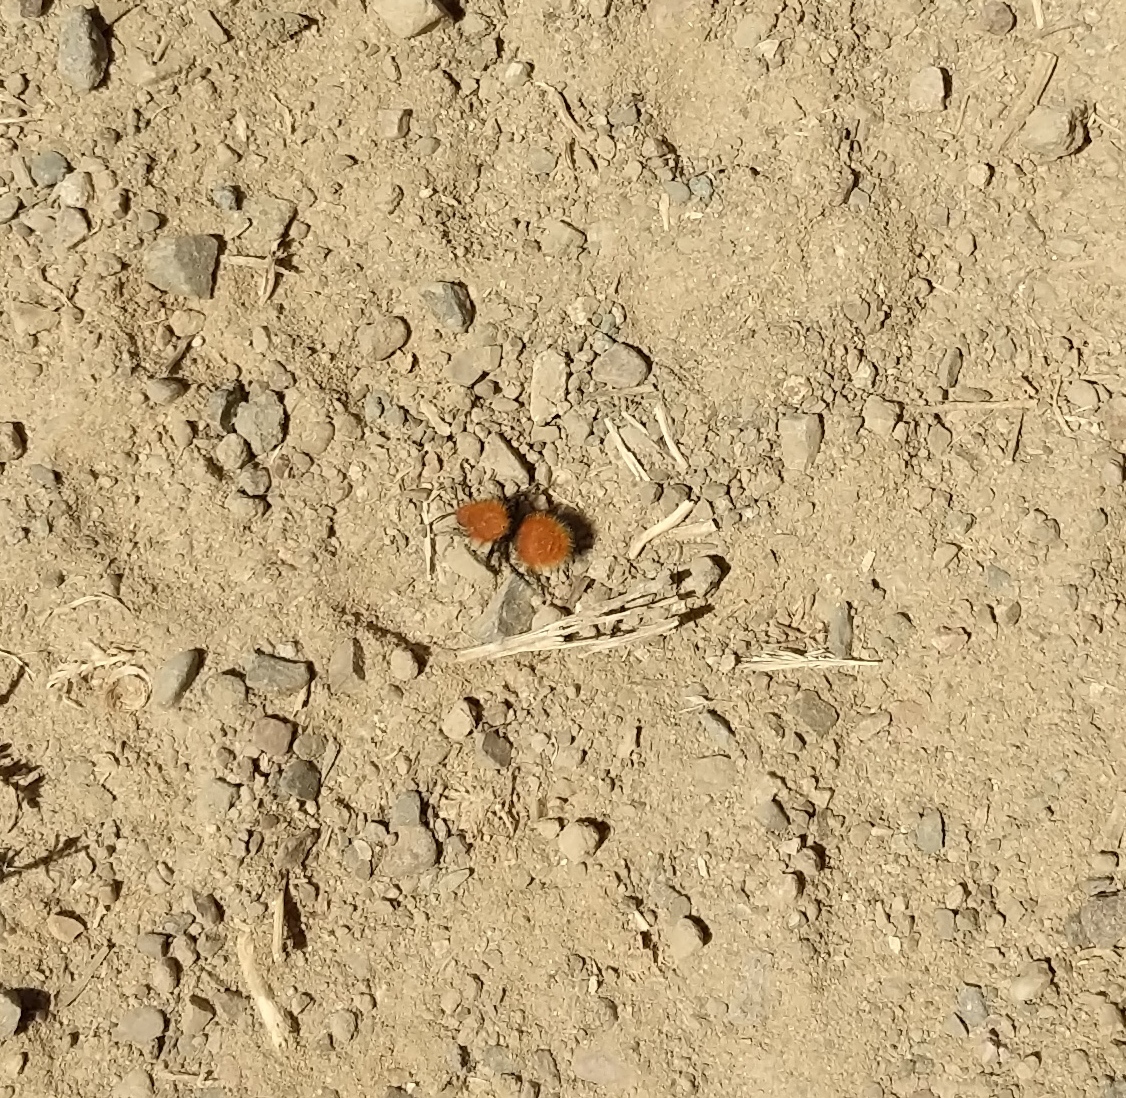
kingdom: Animalia
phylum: Arthropoda
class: Insecta
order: Hymenoptera
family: Mutillidae
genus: Dasymutilla
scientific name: Dasymutilla
